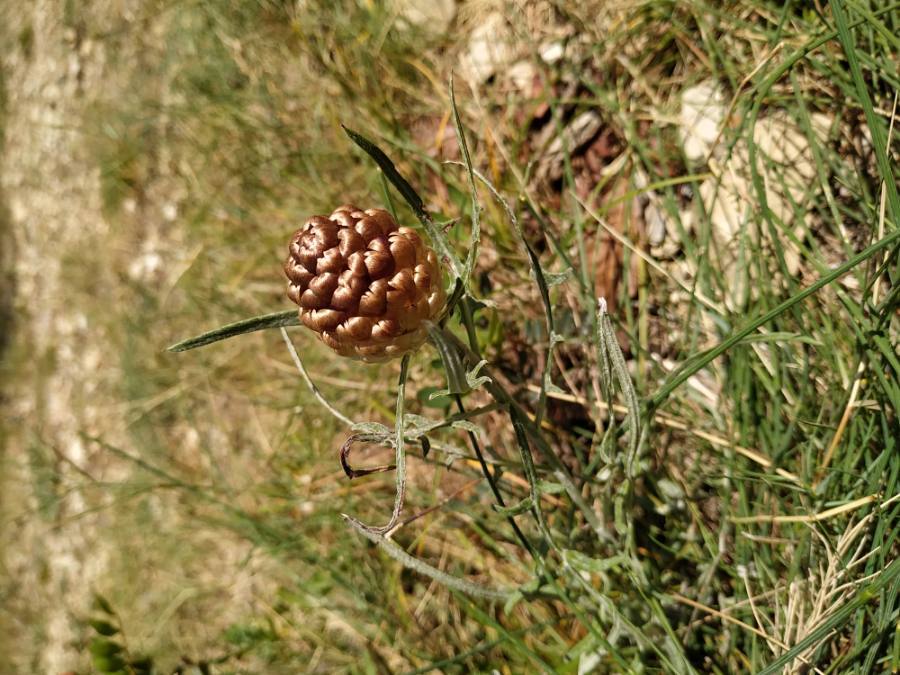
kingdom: Plantae
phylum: Tracheophyta
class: Magnoliopsida
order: Asterales
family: Asteraceae
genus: Leuzea
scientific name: Leuzea conifera
